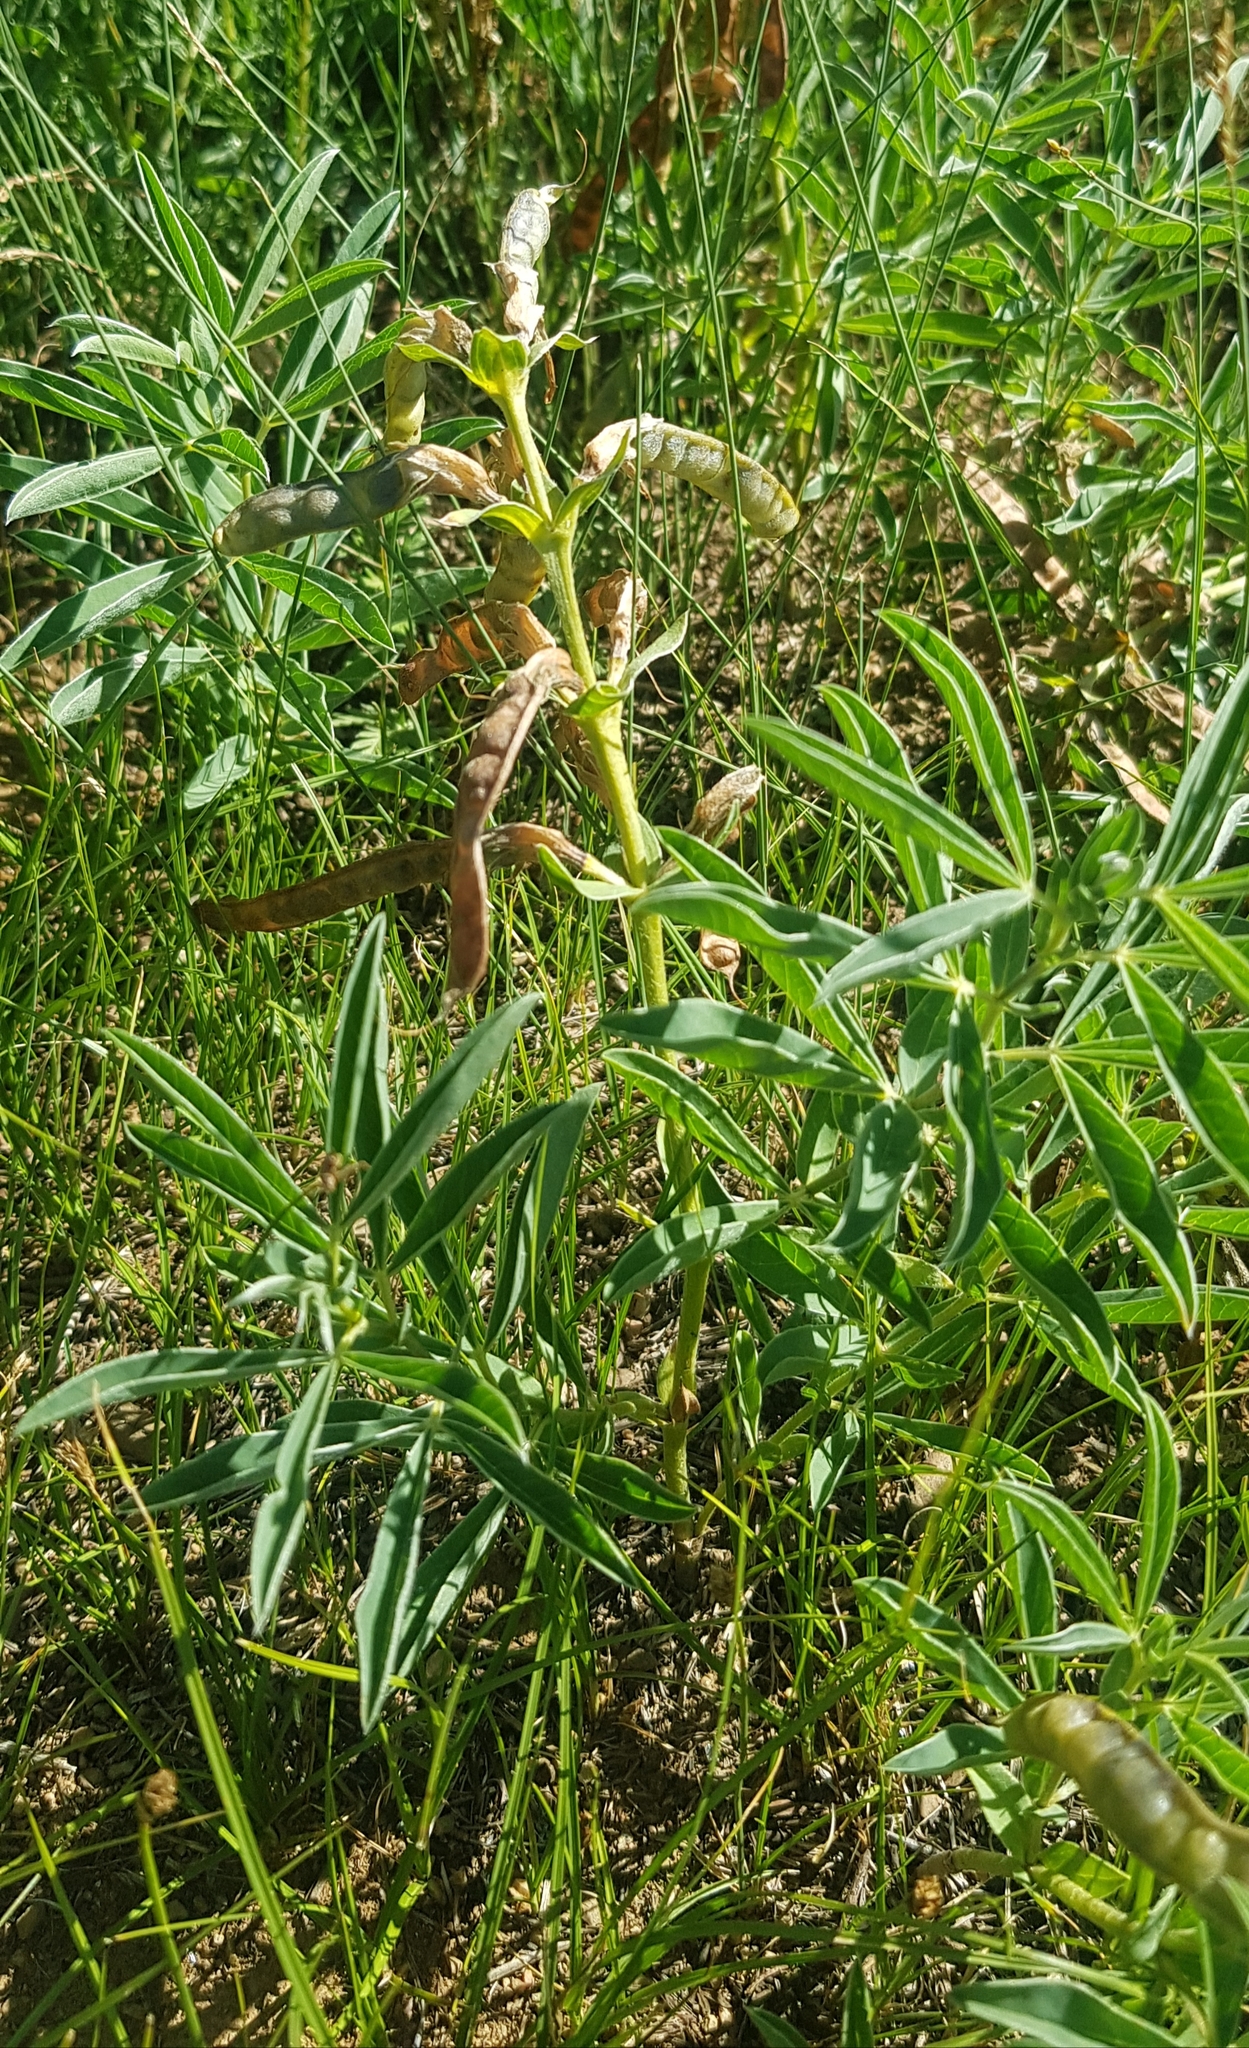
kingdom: Plantae
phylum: Tracheophyta
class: Magnoliopsida
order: Fabales
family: Fabaceae
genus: Thermopsis
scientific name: Thermopsis lanceolata
